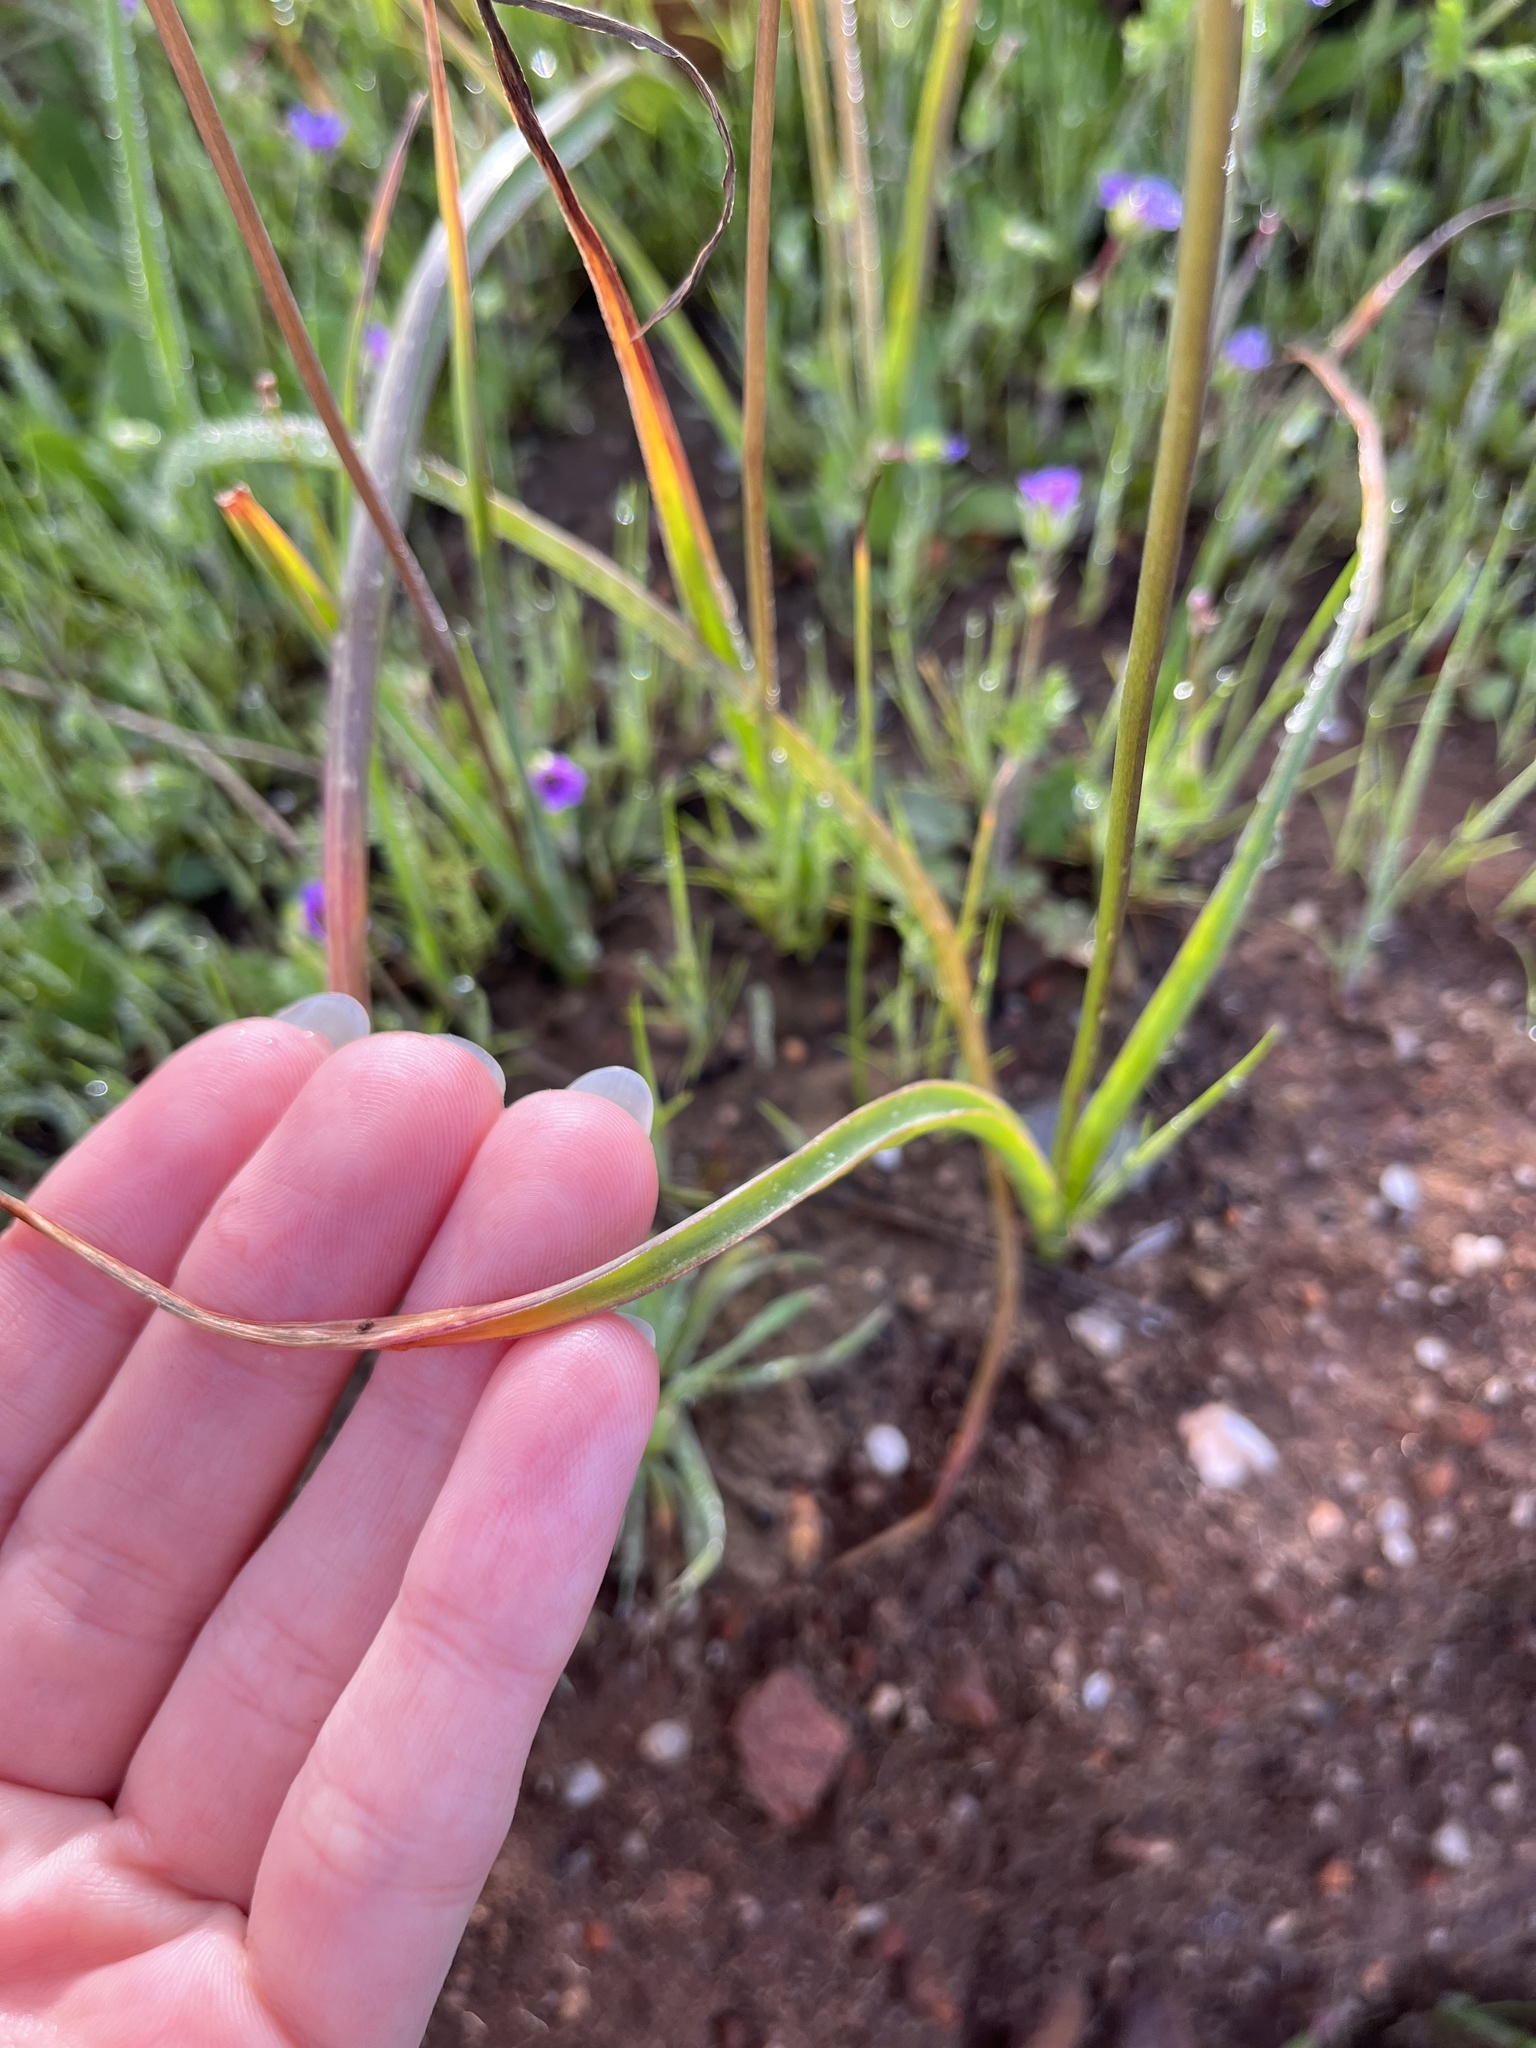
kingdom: Plantae
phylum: Tracheophyta
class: Liliopsida
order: Asparagales
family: Asparagaceae
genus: Dipterostemon
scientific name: Dipterostemon capitatus
